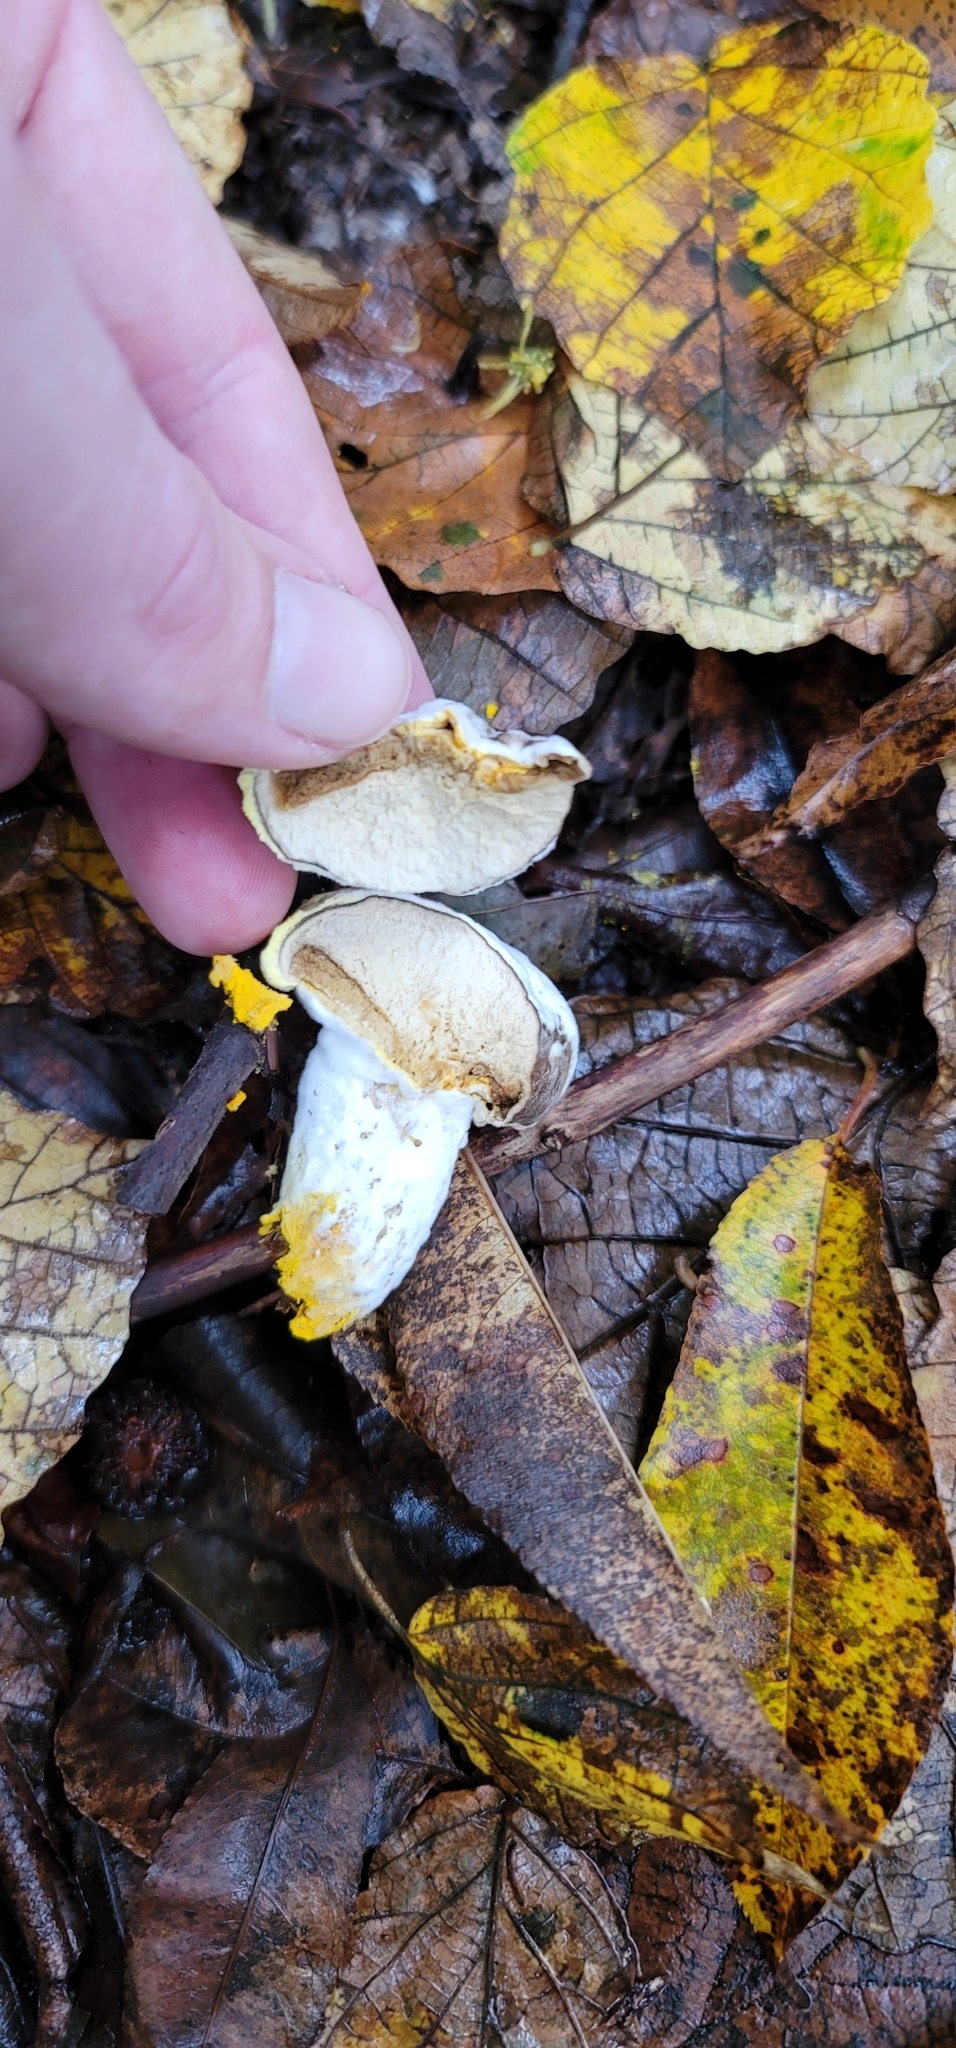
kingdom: Fungi
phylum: Ascomycota
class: Sordariomycetes
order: Hypocreales
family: Hypocreaceae
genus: Hypomyces
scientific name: Hypomyces chrysospermus
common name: Bolete mould
